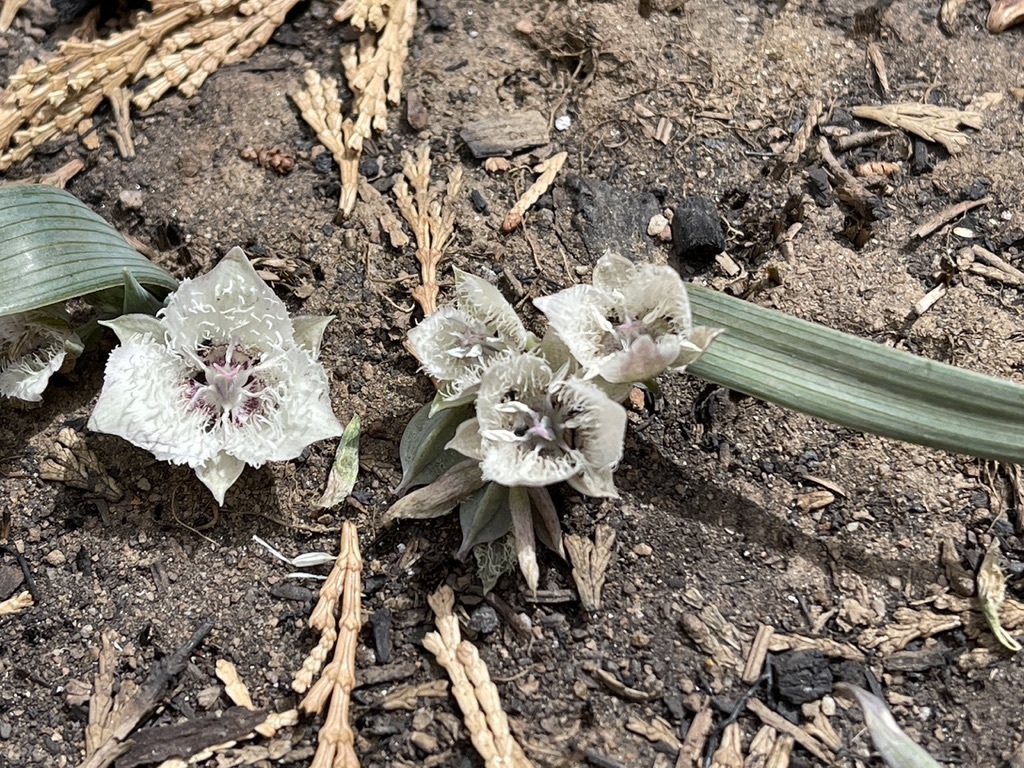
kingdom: Plantae
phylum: Tracheophyta
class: Liliopsida
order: Liliales
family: Liliaceae
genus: Calochortus
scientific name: Calochortus westonii
